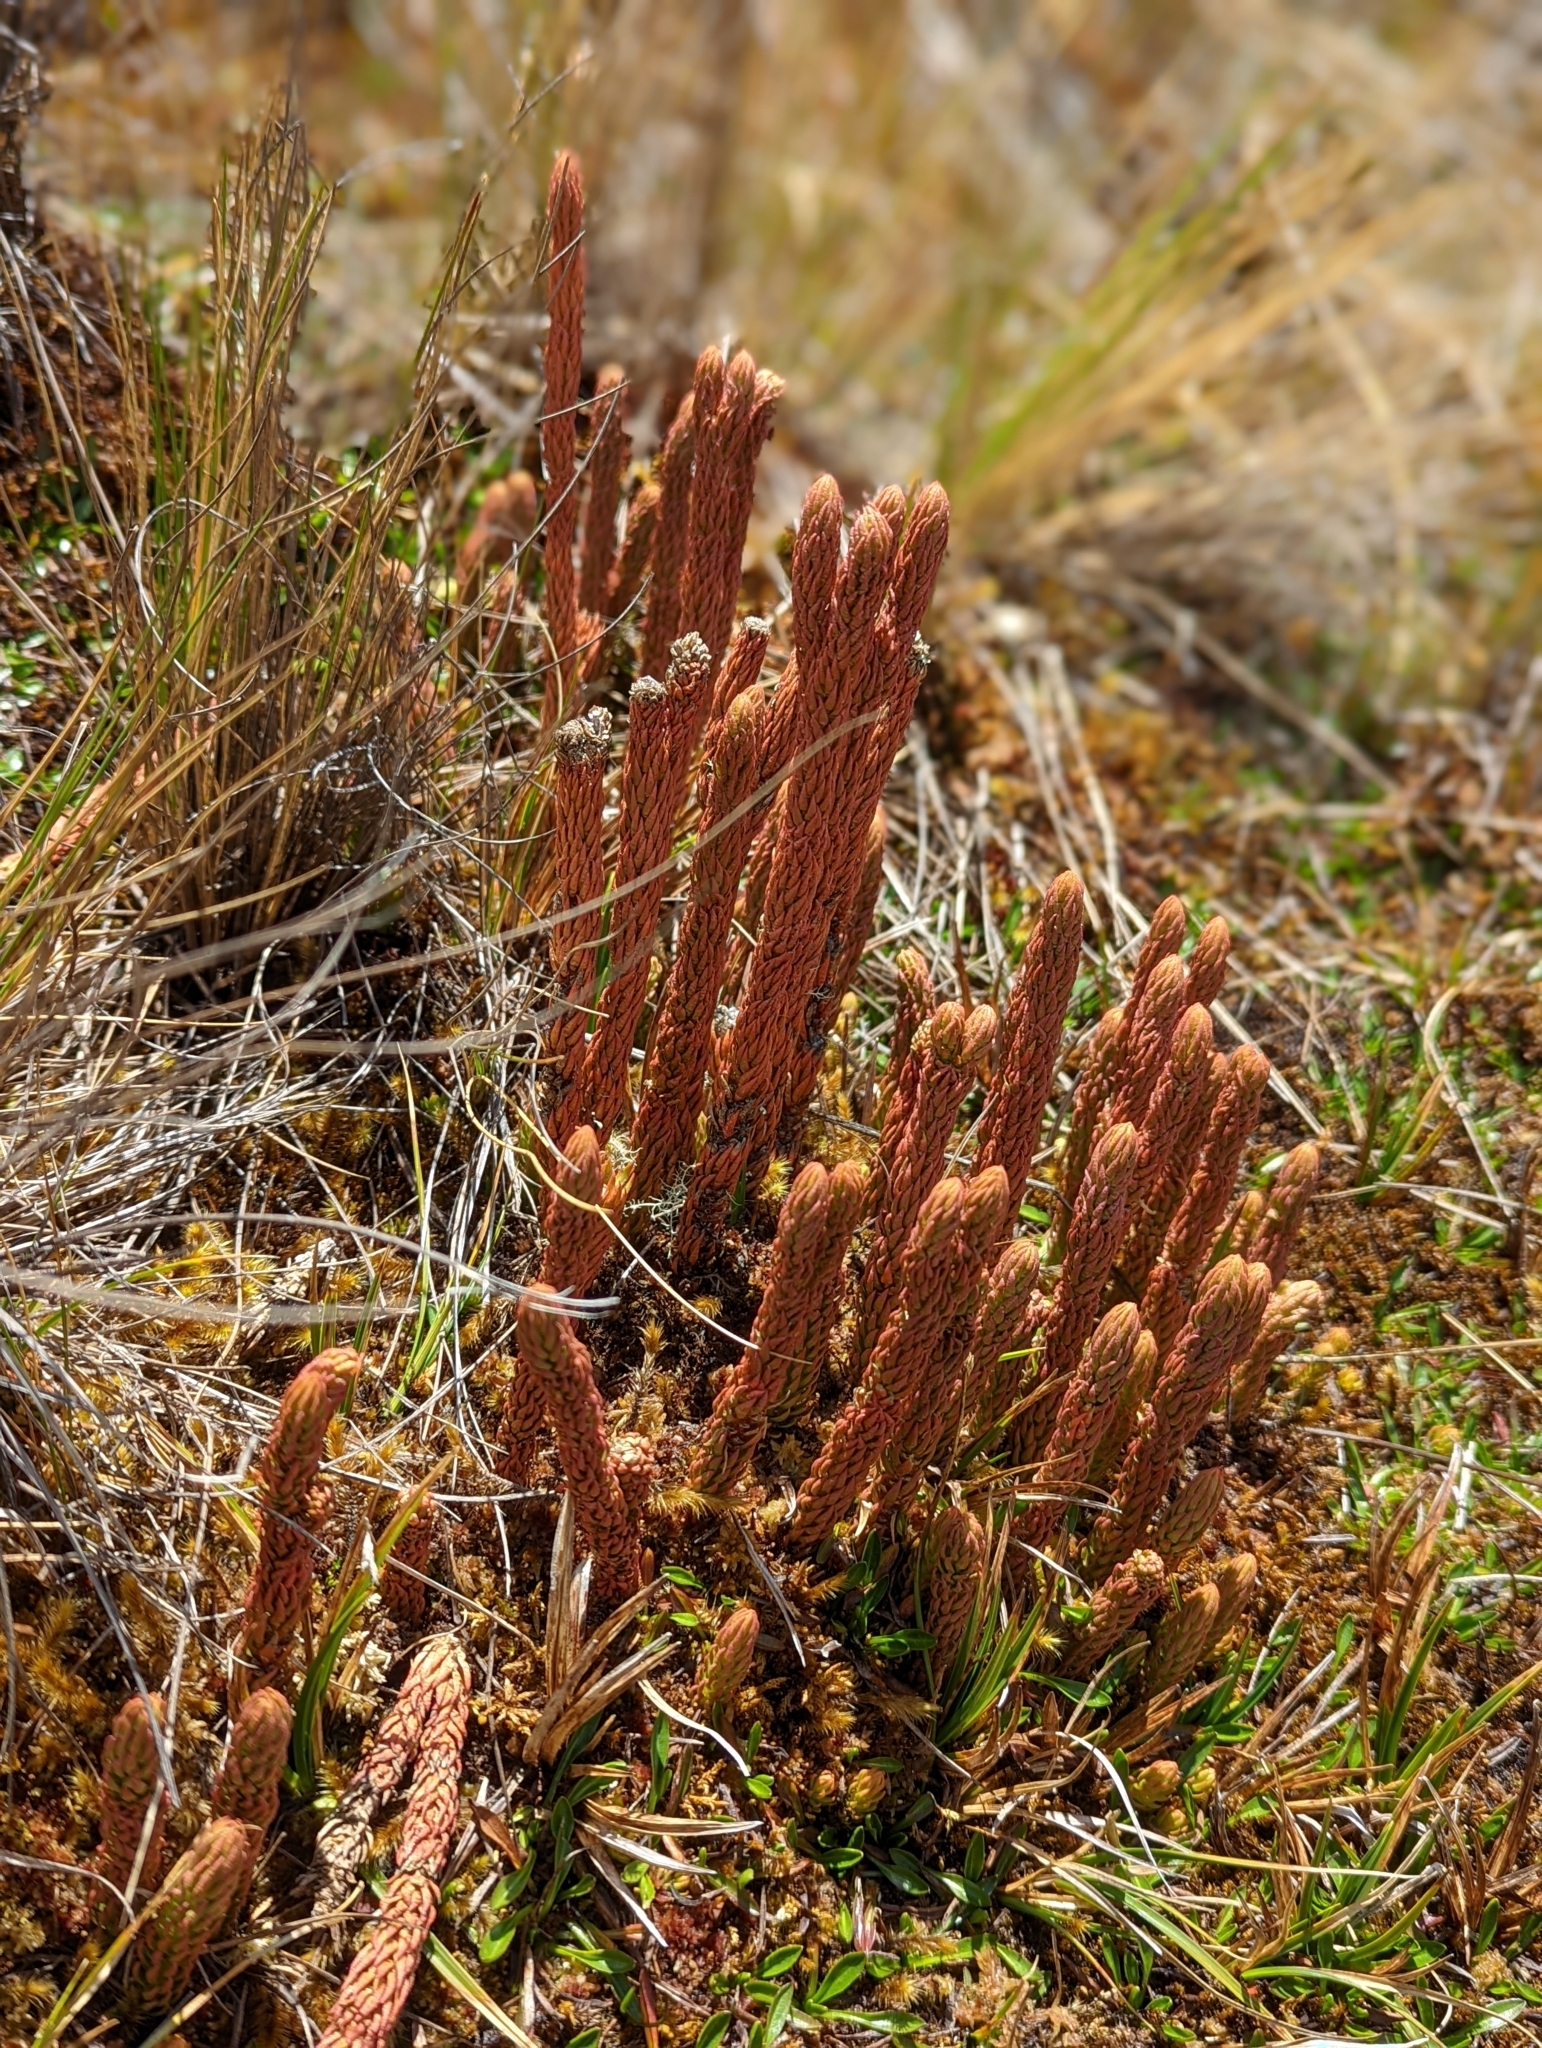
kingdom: Plantae
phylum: Tracheophyta
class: Lycopodiopsida
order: Lycopodiales
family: Lycopodiaceae
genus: Phlegmariurus
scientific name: Phlegmariurus crassus
